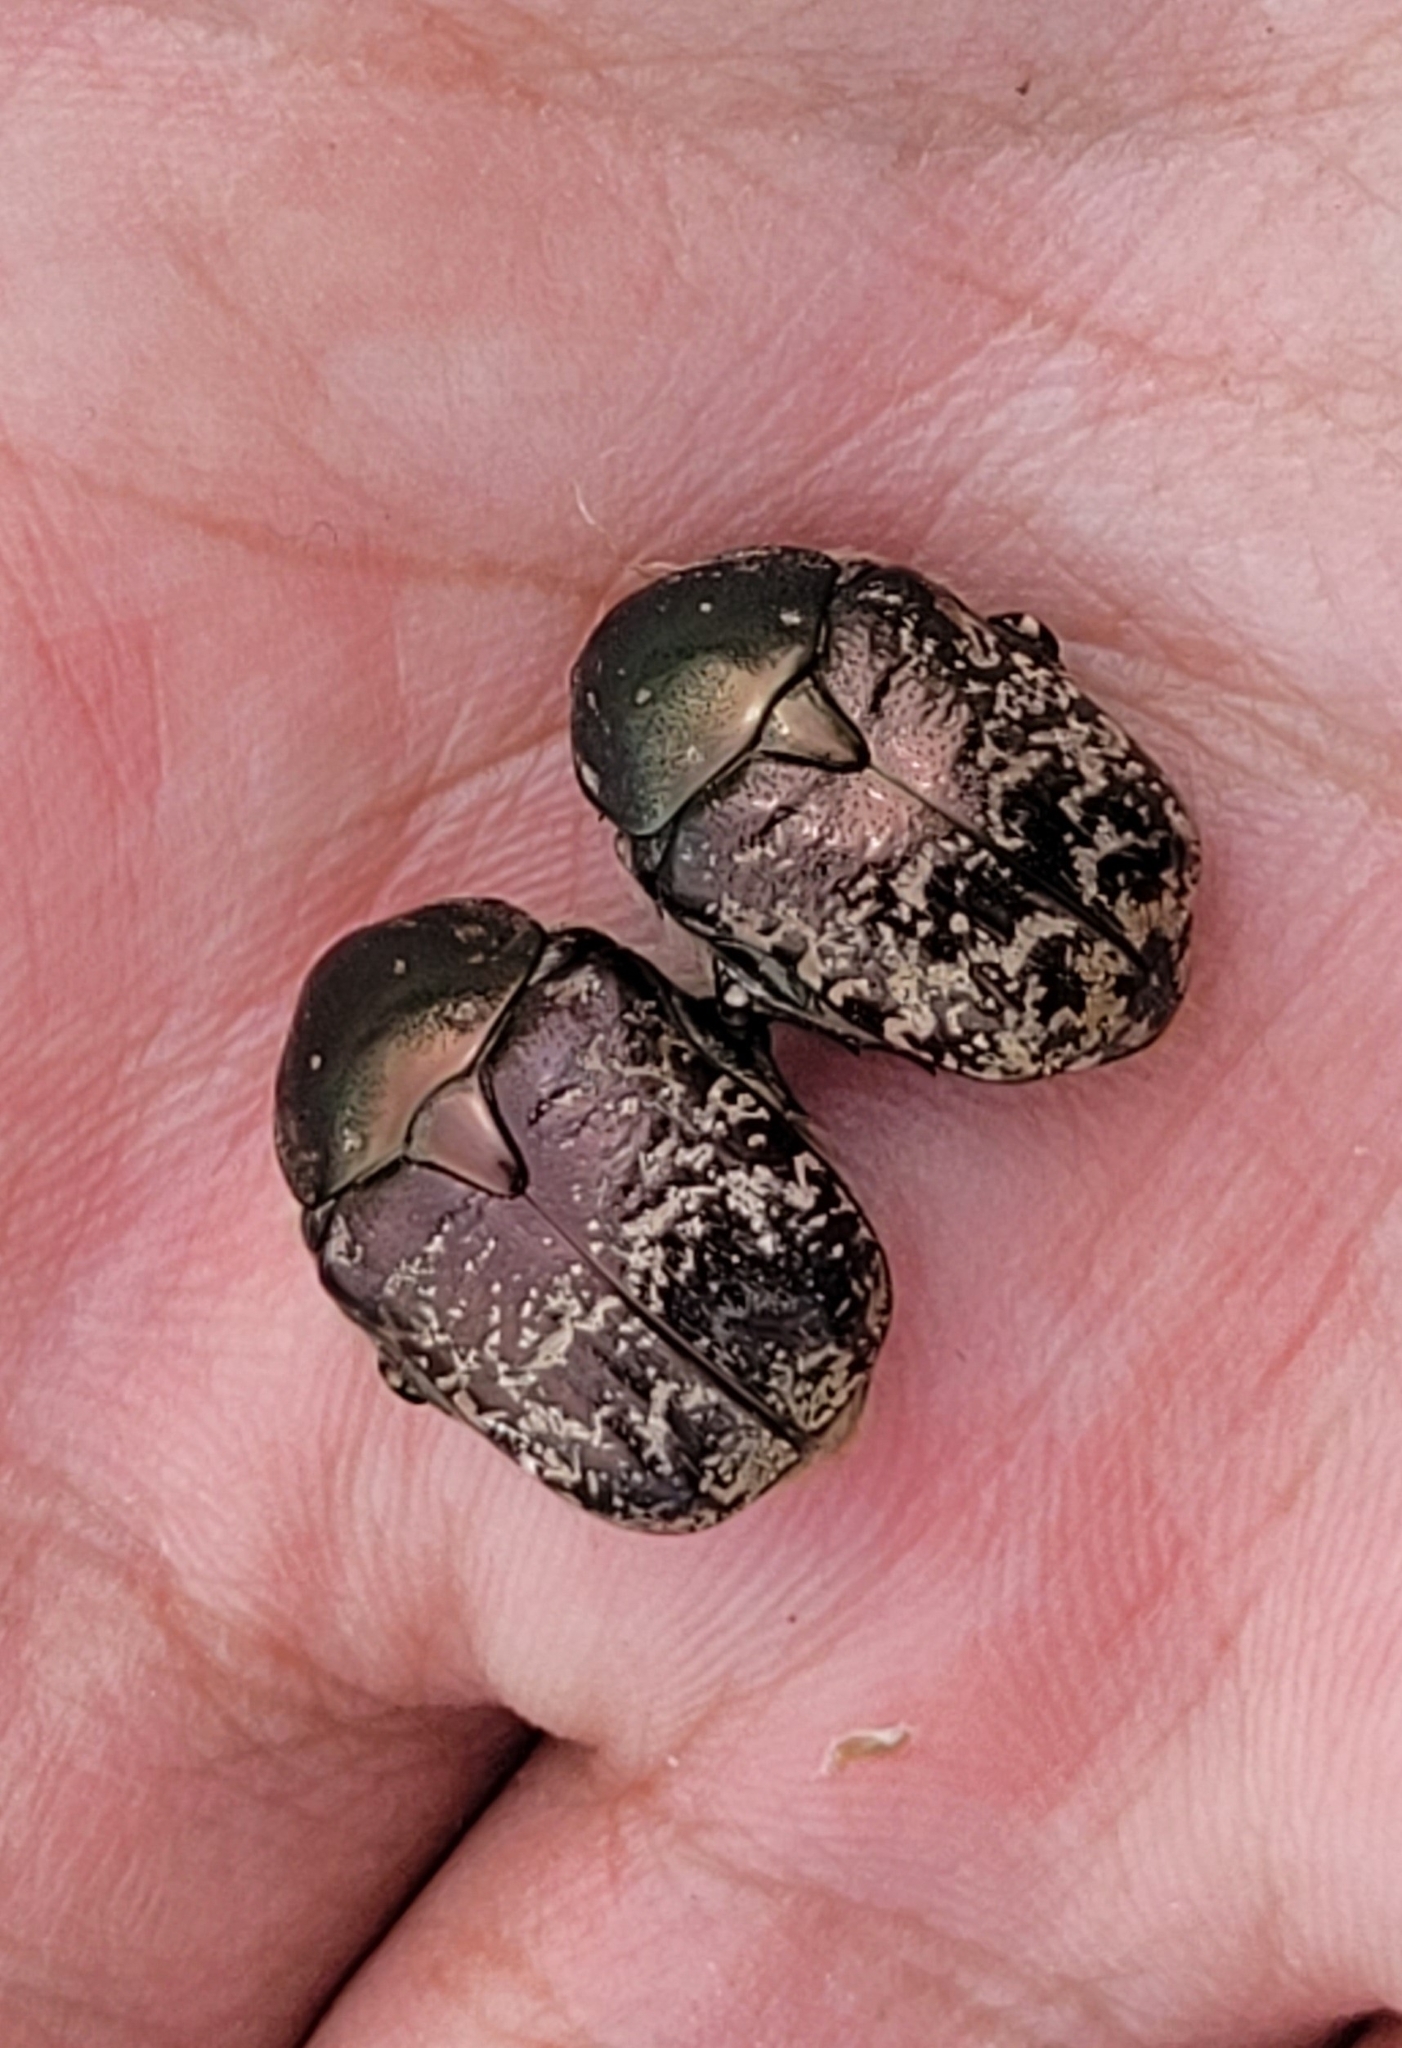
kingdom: Animalia
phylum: Arthropoda
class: Insecta
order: Coleoptera
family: Scarabaeidae
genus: Protaetia
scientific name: Protaetia karelini
